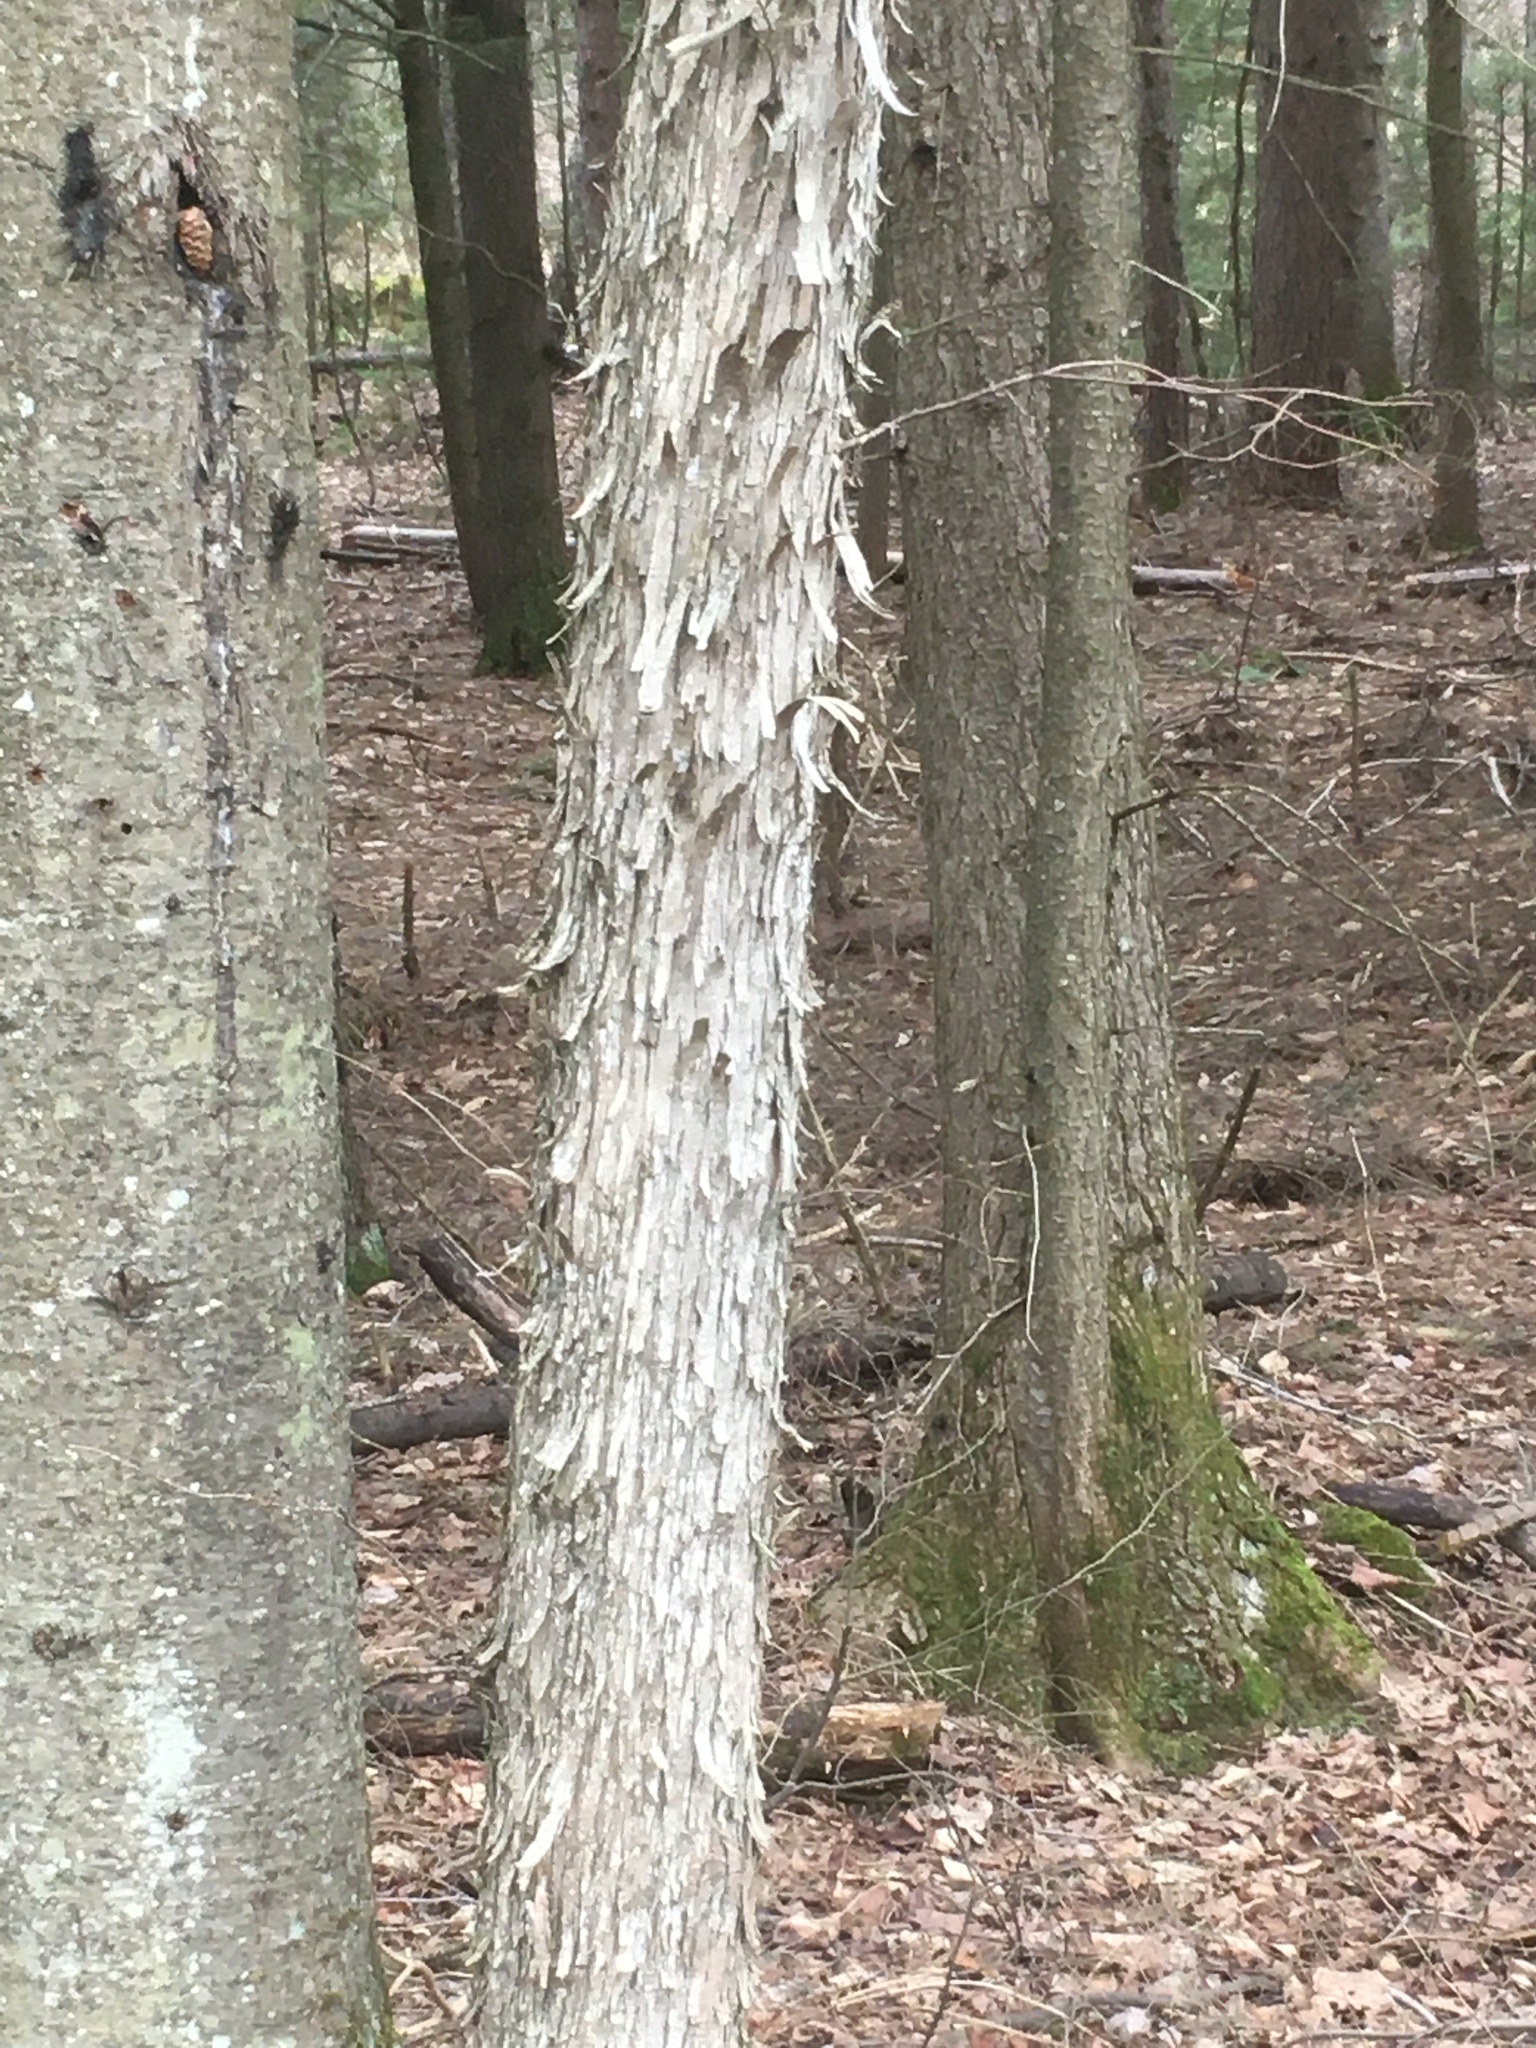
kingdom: Plantae
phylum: Tracheophyta
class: Magnoliopsida
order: Fagales
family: Betulaceae
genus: Ostrya
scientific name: Ostrya virginiana
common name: Ironwood
